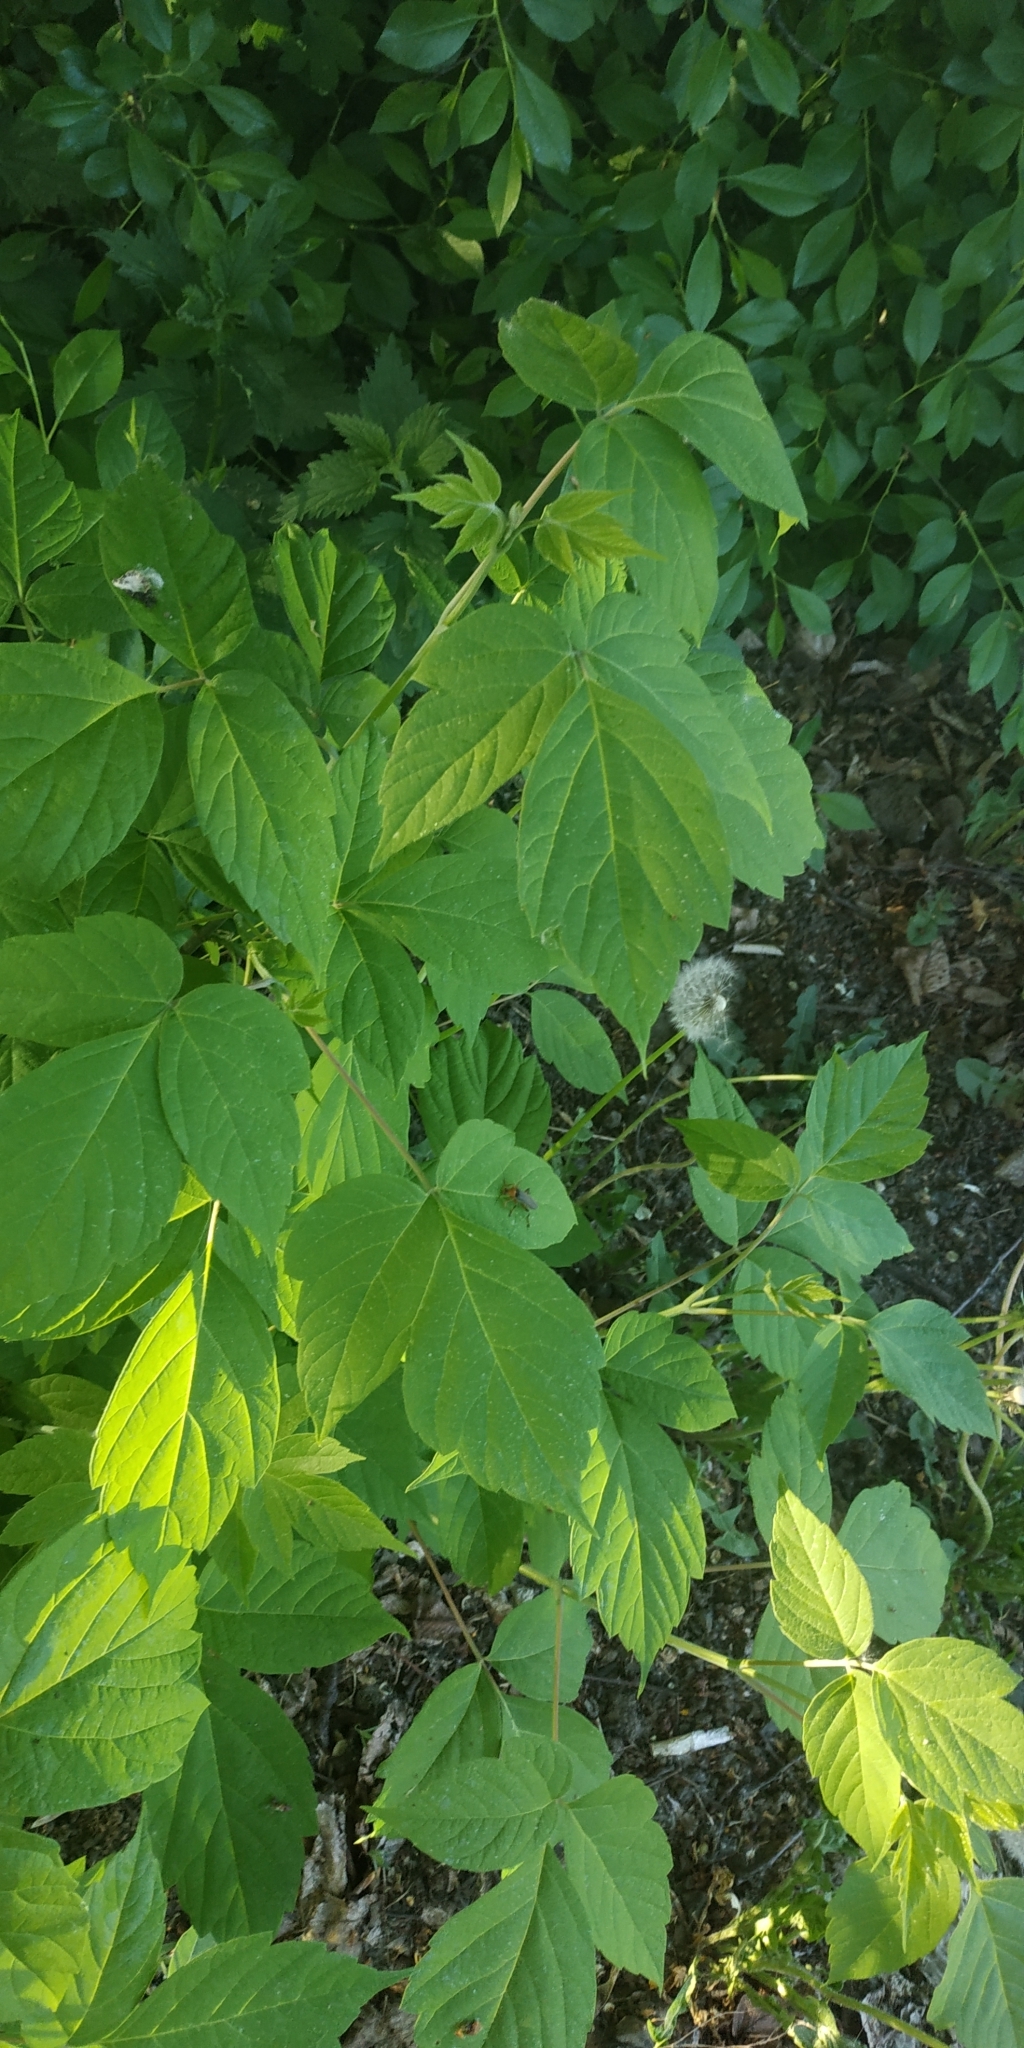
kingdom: Plantae
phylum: Tracheophyta
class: Magnoliopsida
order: Sapindales
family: Sapindaceae
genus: Acer
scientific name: Acer negundo
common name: Ashleaf maple
